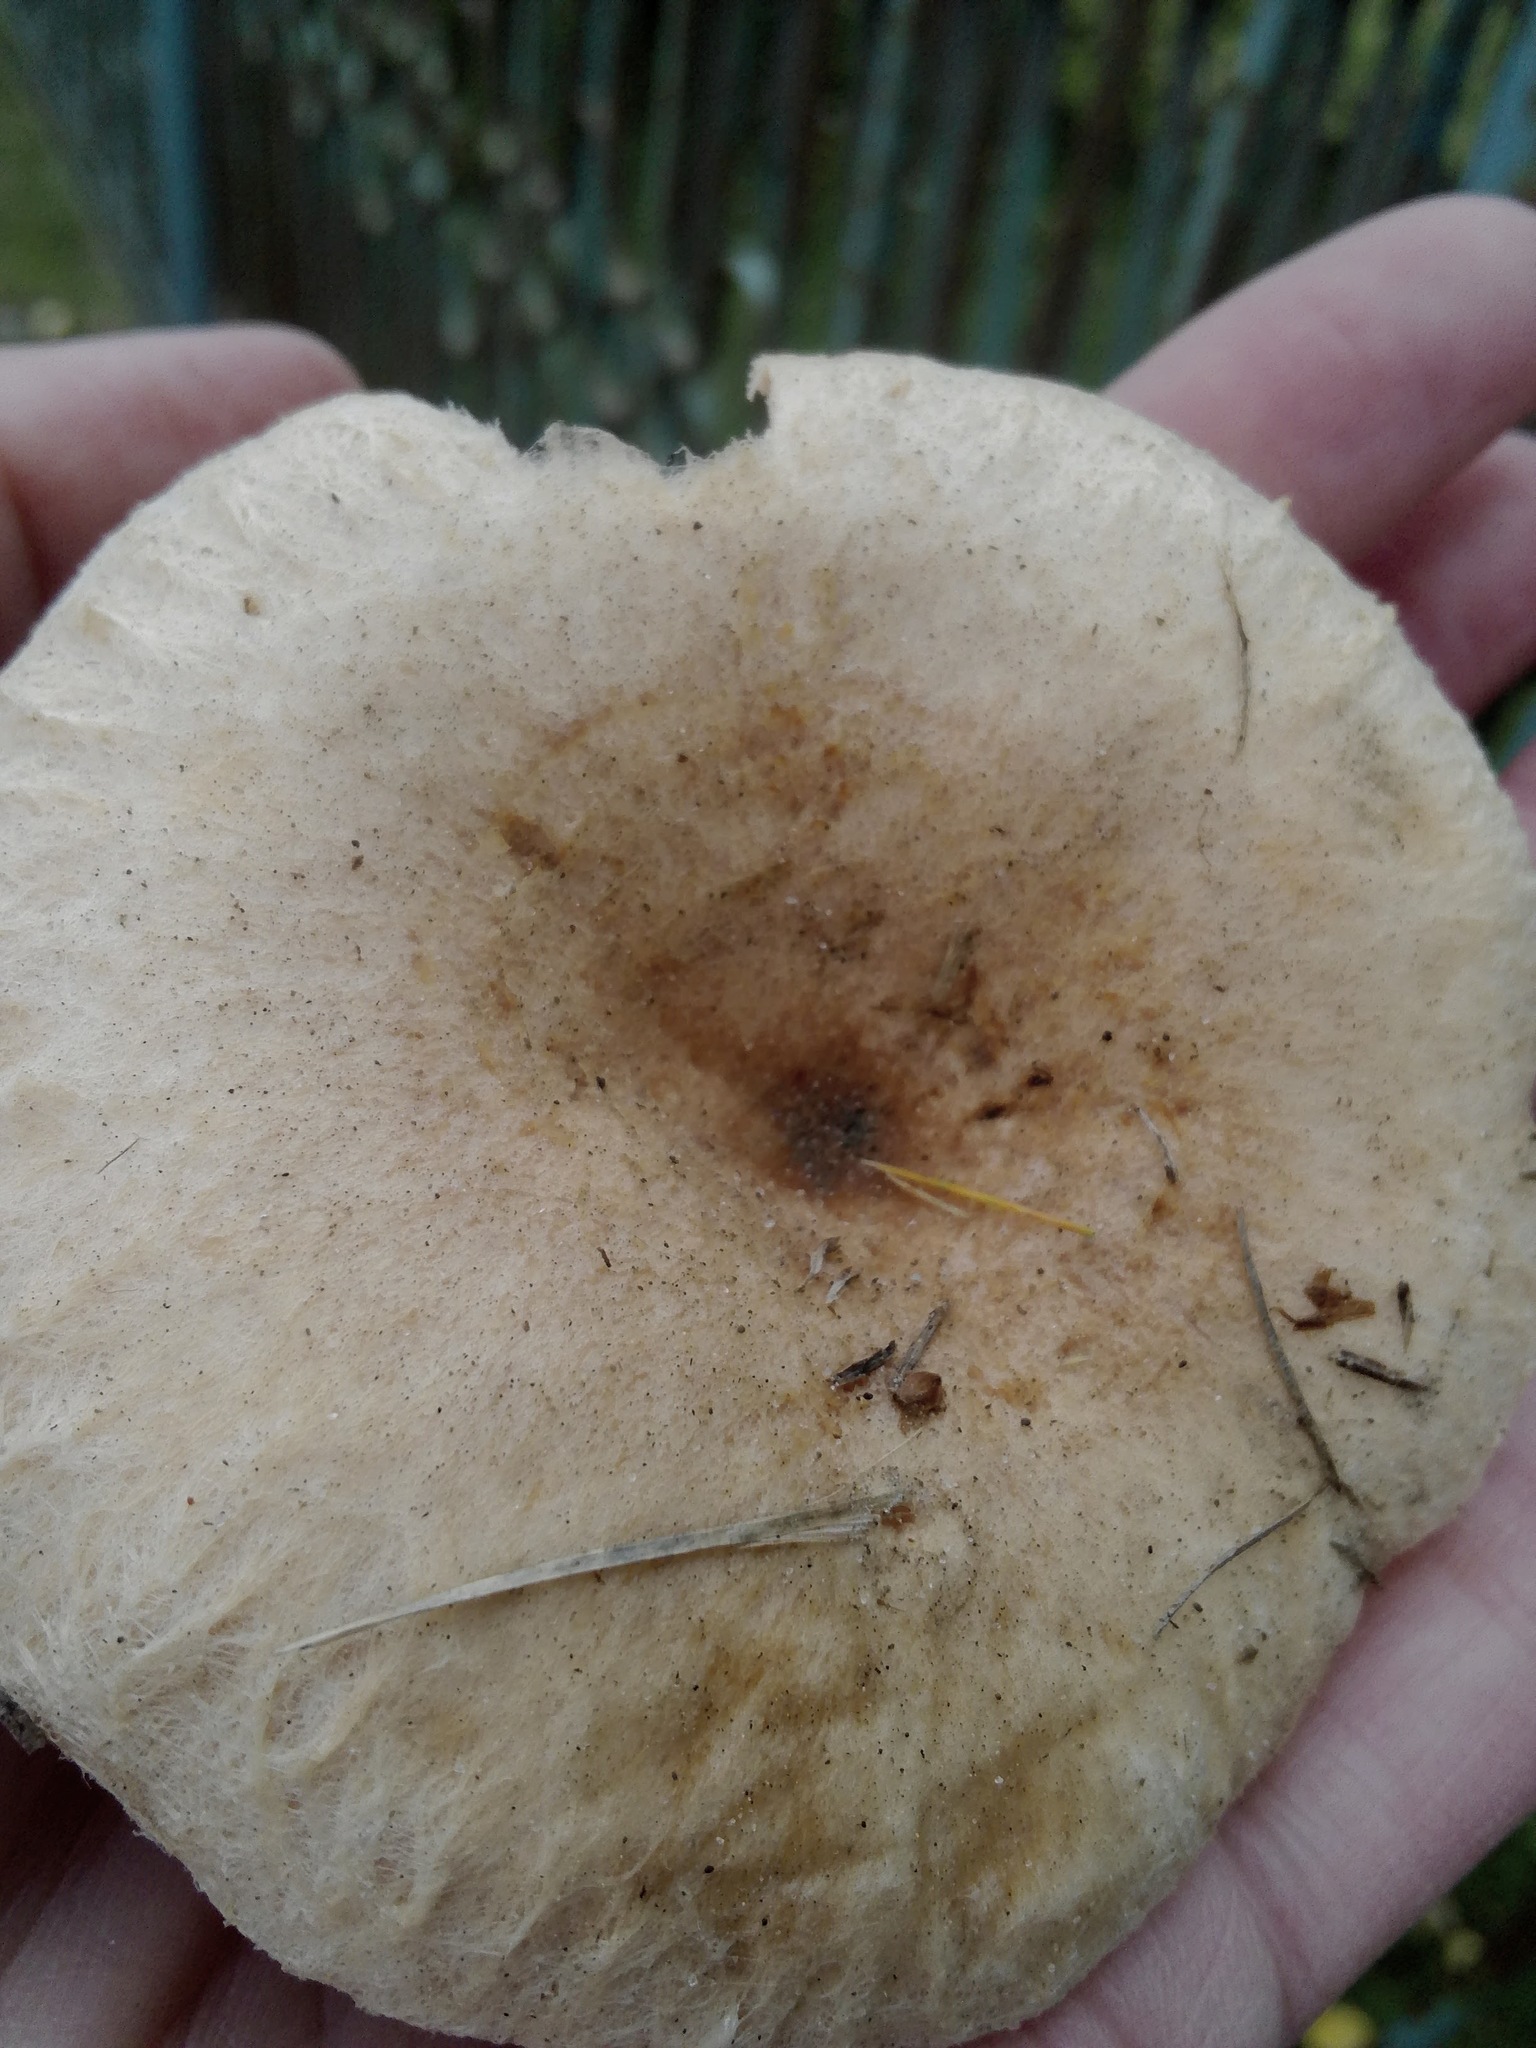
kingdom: Fungi
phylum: Basidiomycota
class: Agaricomycetes
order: Russulales
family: Russulaceae
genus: Lactarius
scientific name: Lactarius torminosus
